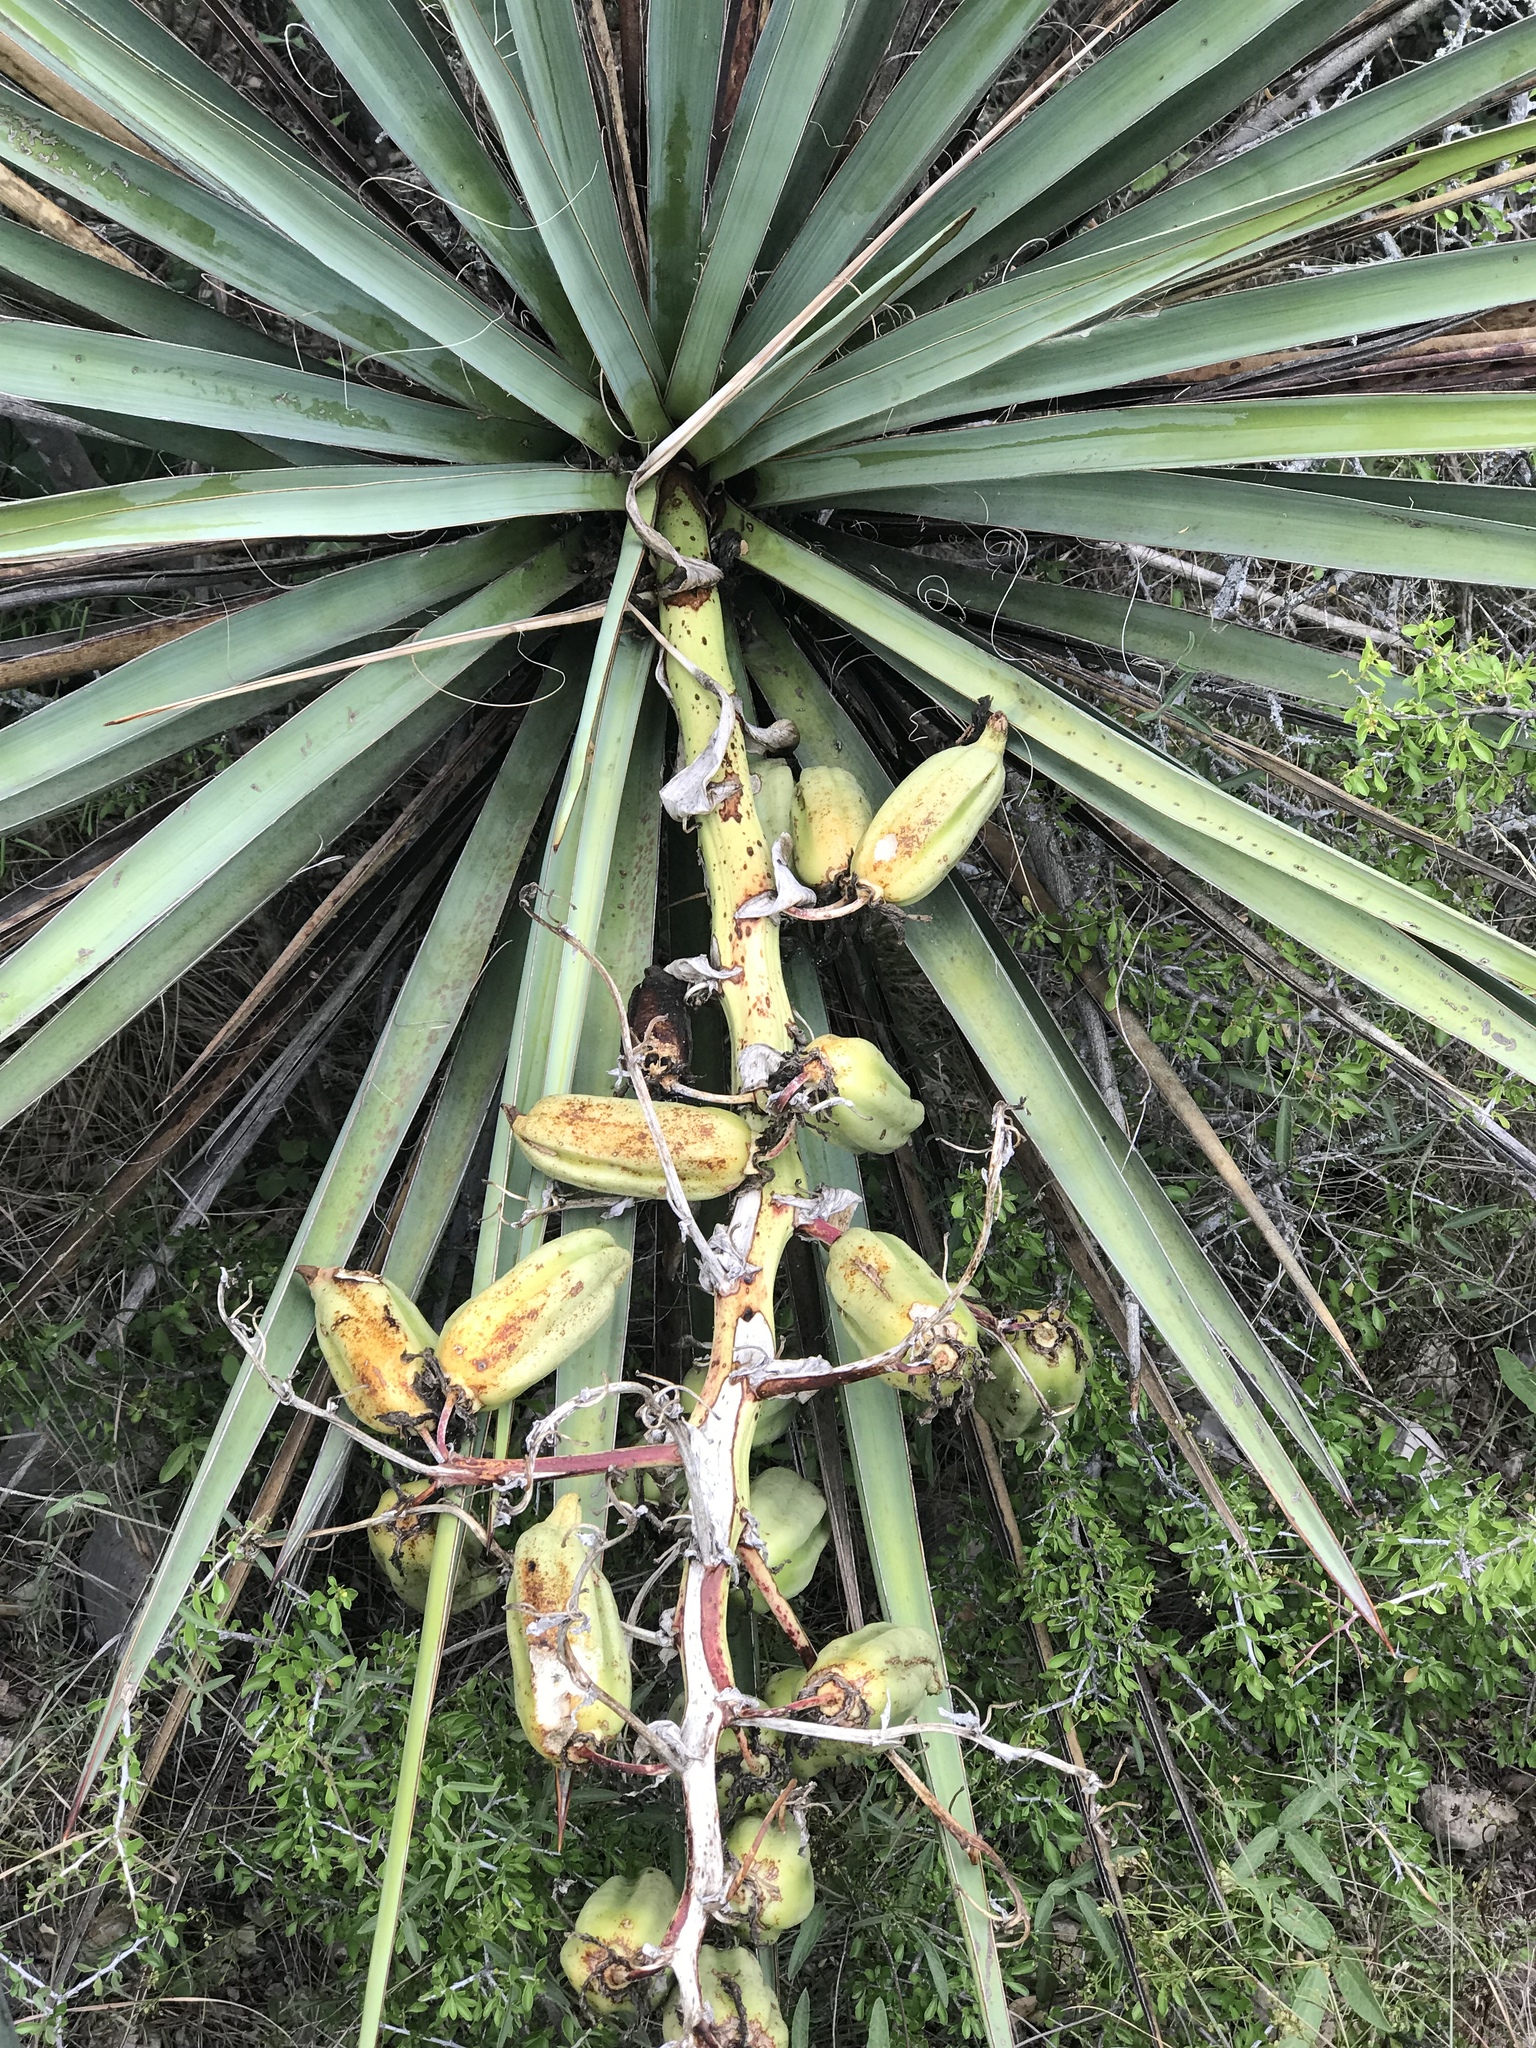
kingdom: Plantae
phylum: Tracheophyta
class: Liliopsida
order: Asparagales
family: Asparagaceae
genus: Yucca
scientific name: Yucca treculiana
